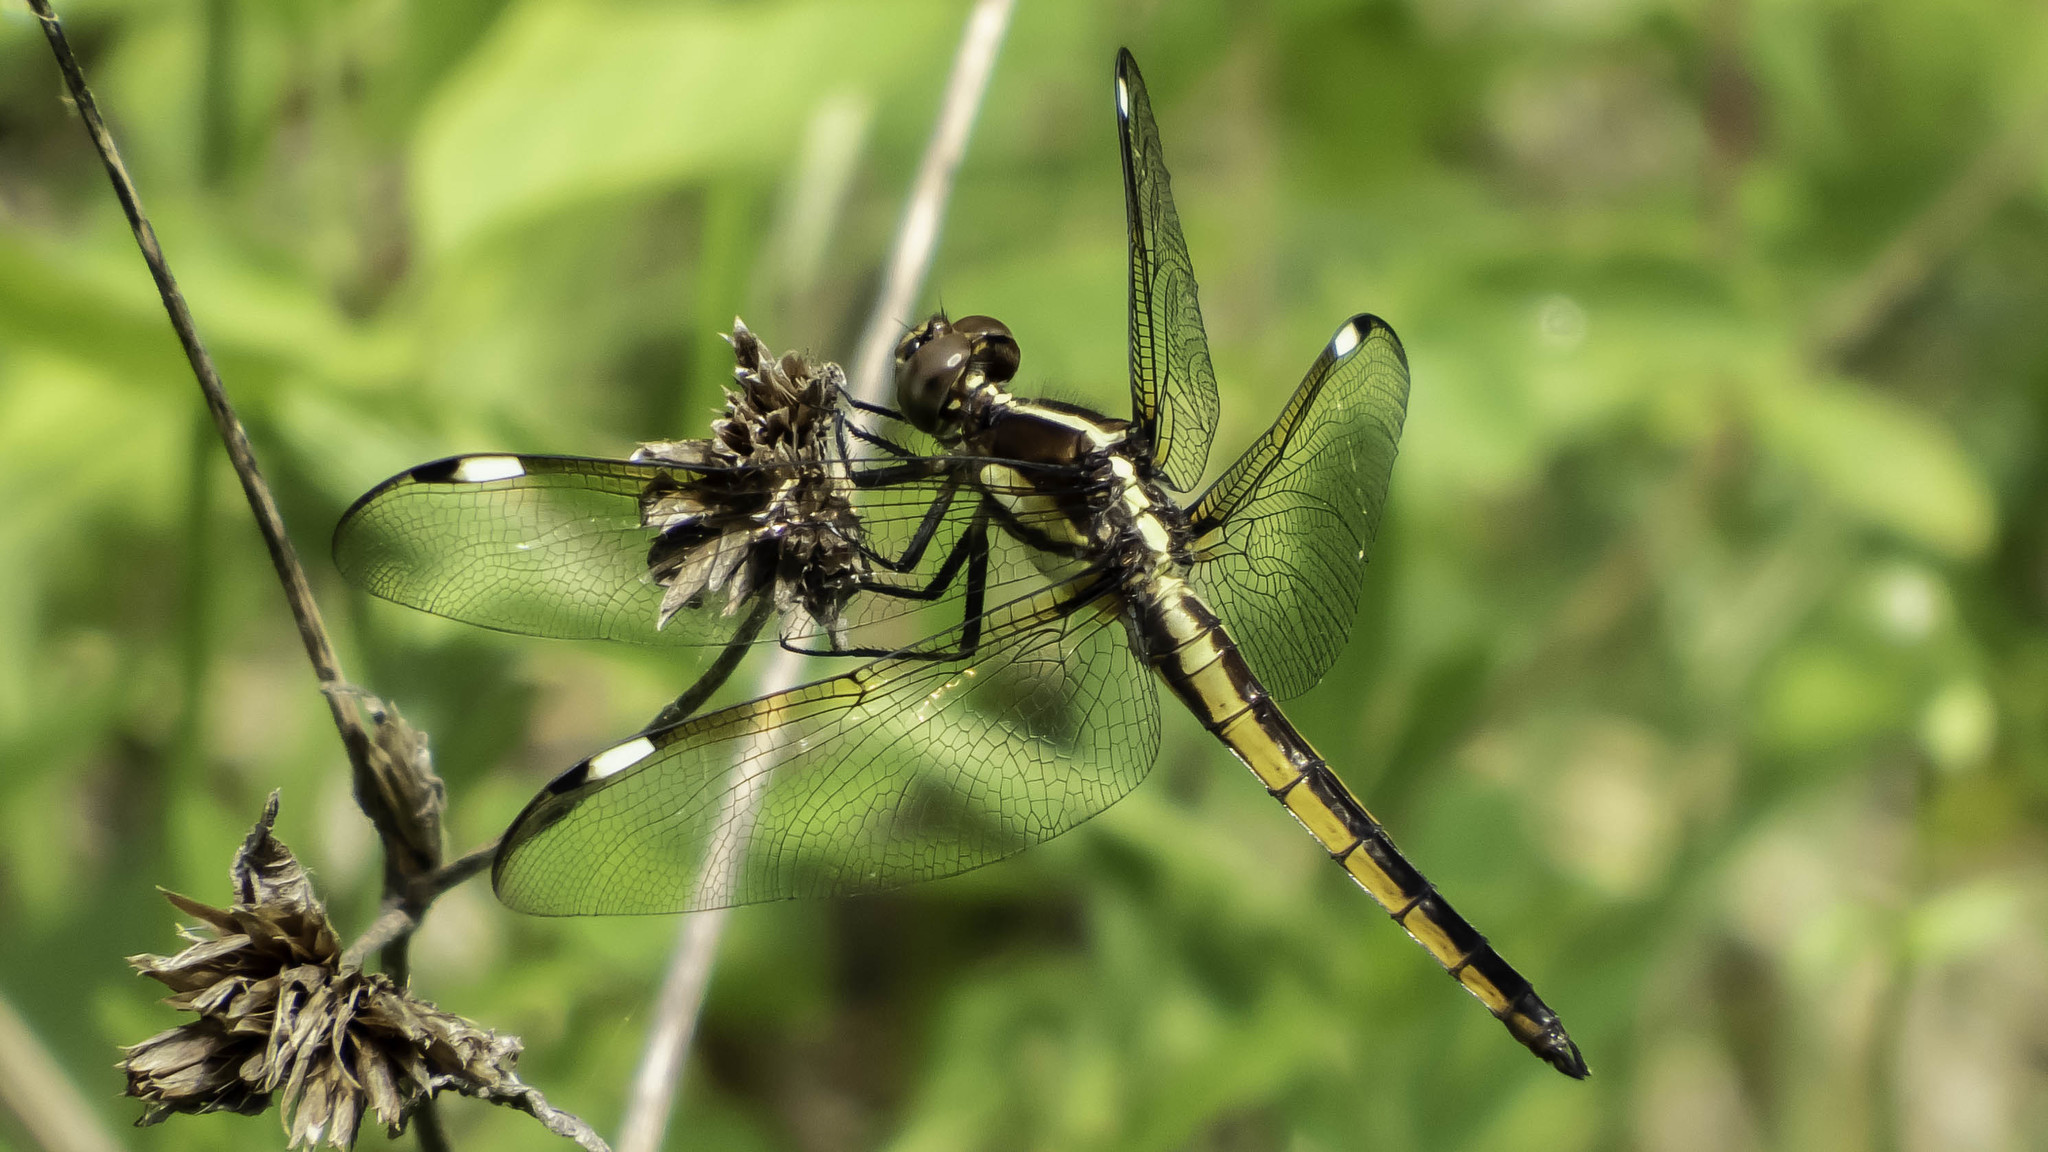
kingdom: Animalia
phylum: Arthropoda
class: Insecta
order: Odonata
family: Libellulidae
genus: Libellula
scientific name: Libellula cyanea
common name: Spangled skimmer
